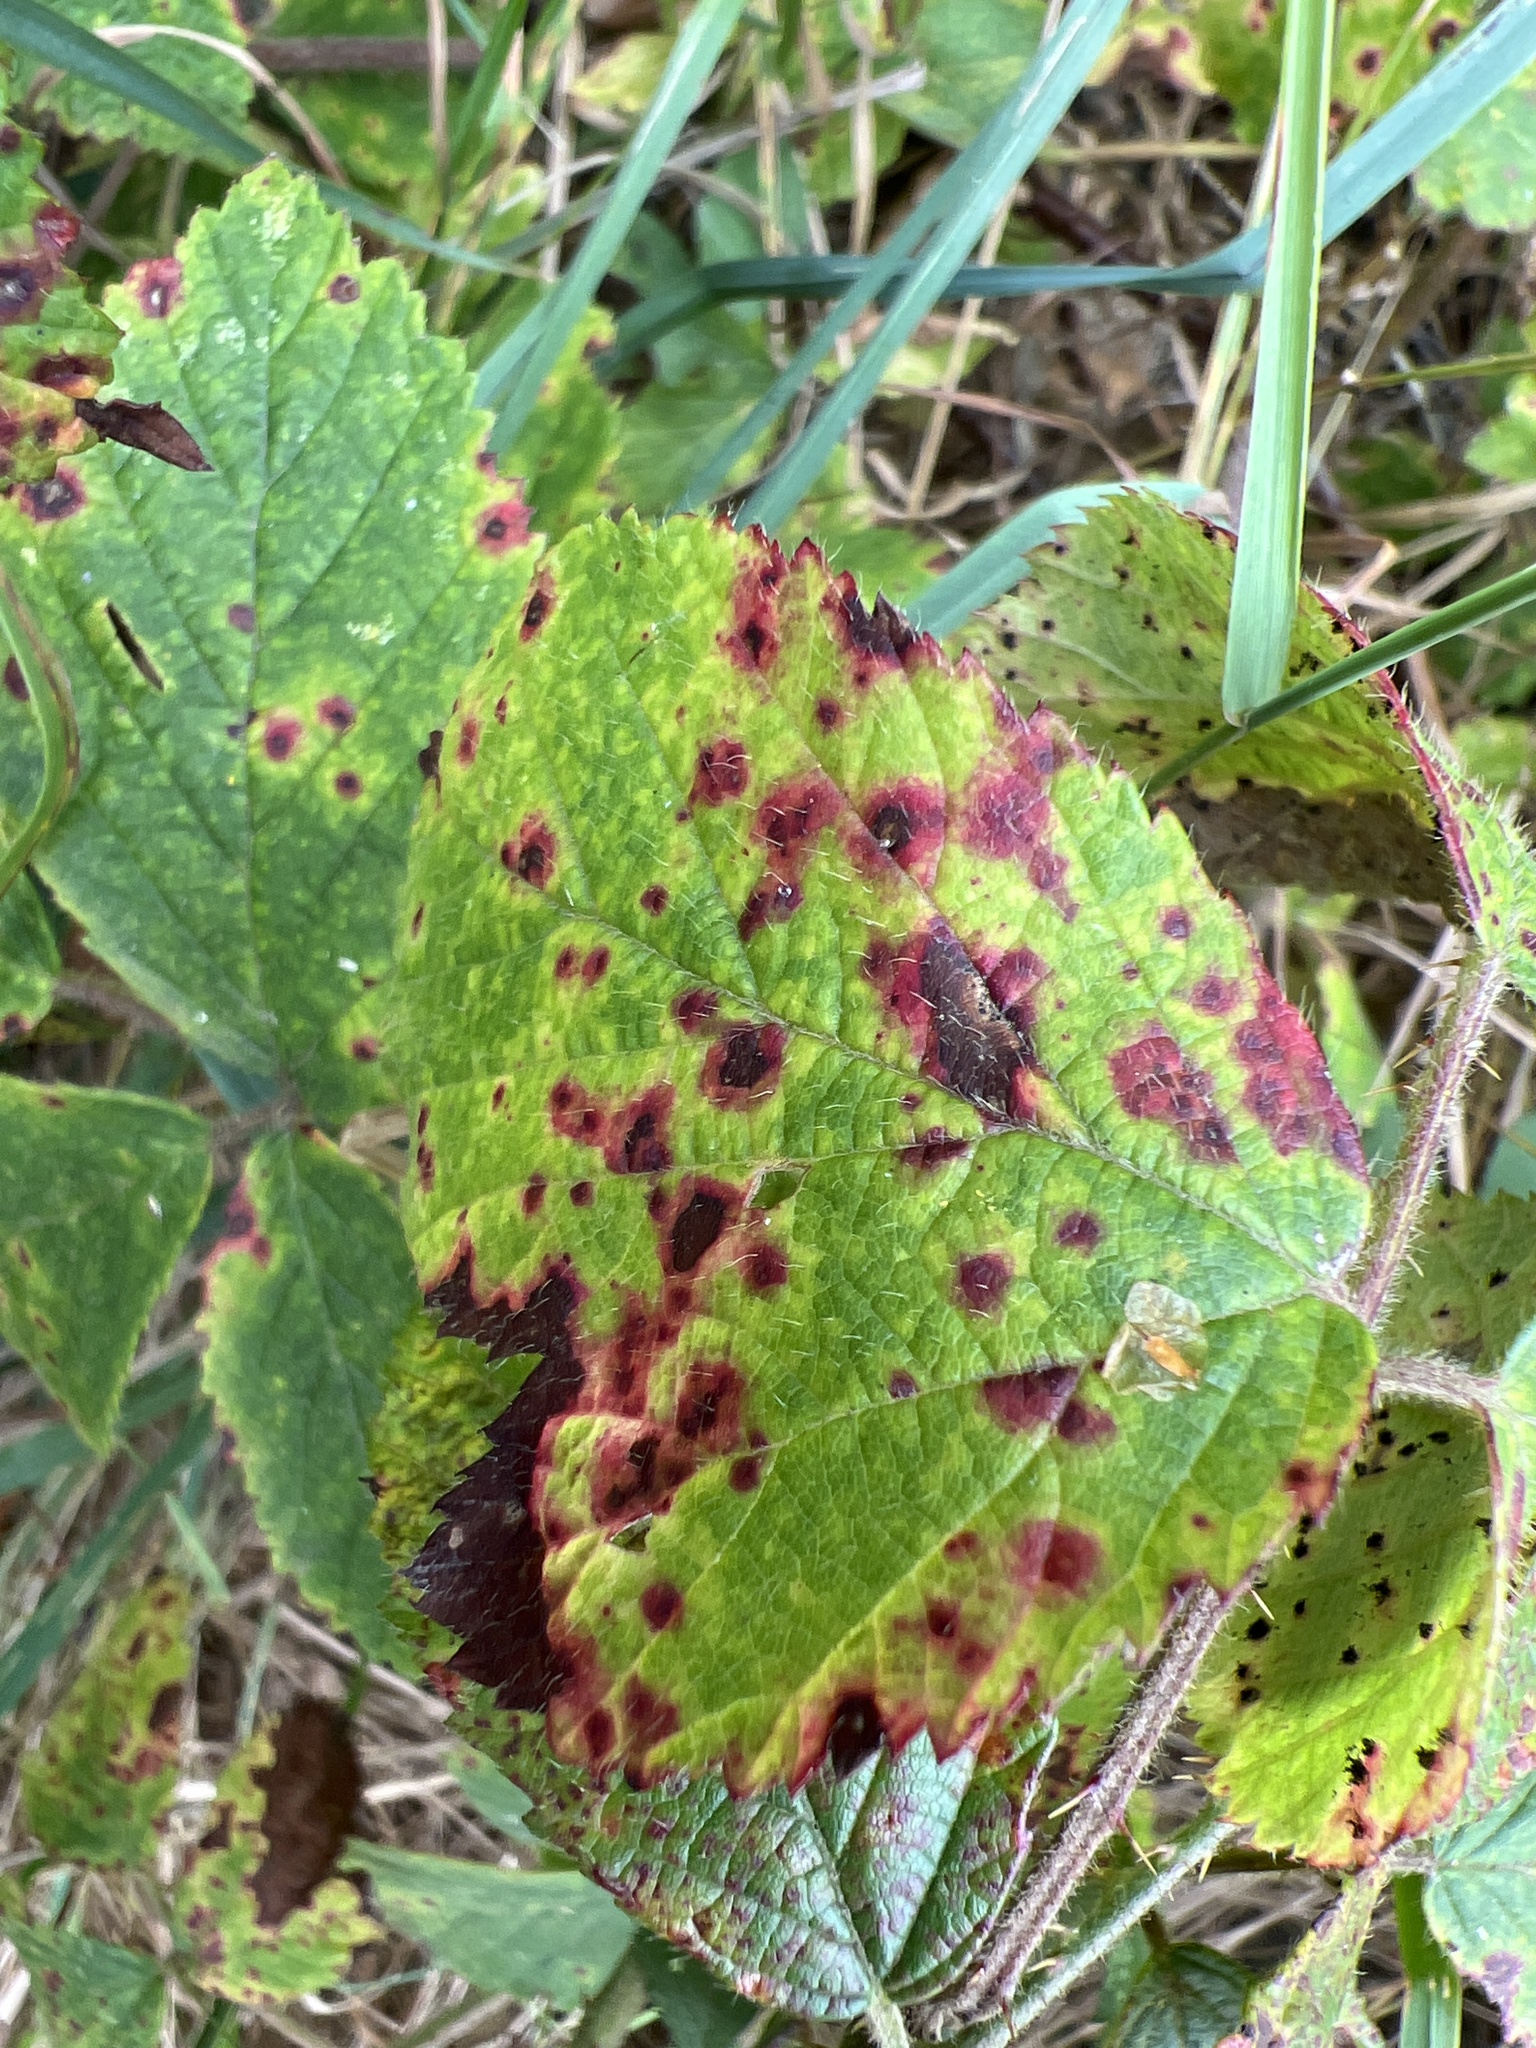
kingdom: Fungi
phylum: Basidiomycota
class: Pucciniomycetes
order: Pucciniales
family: Phragmidiaceae
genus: Phragmidium
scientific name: Phragmidium violaceum
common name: Violet bramble rust
